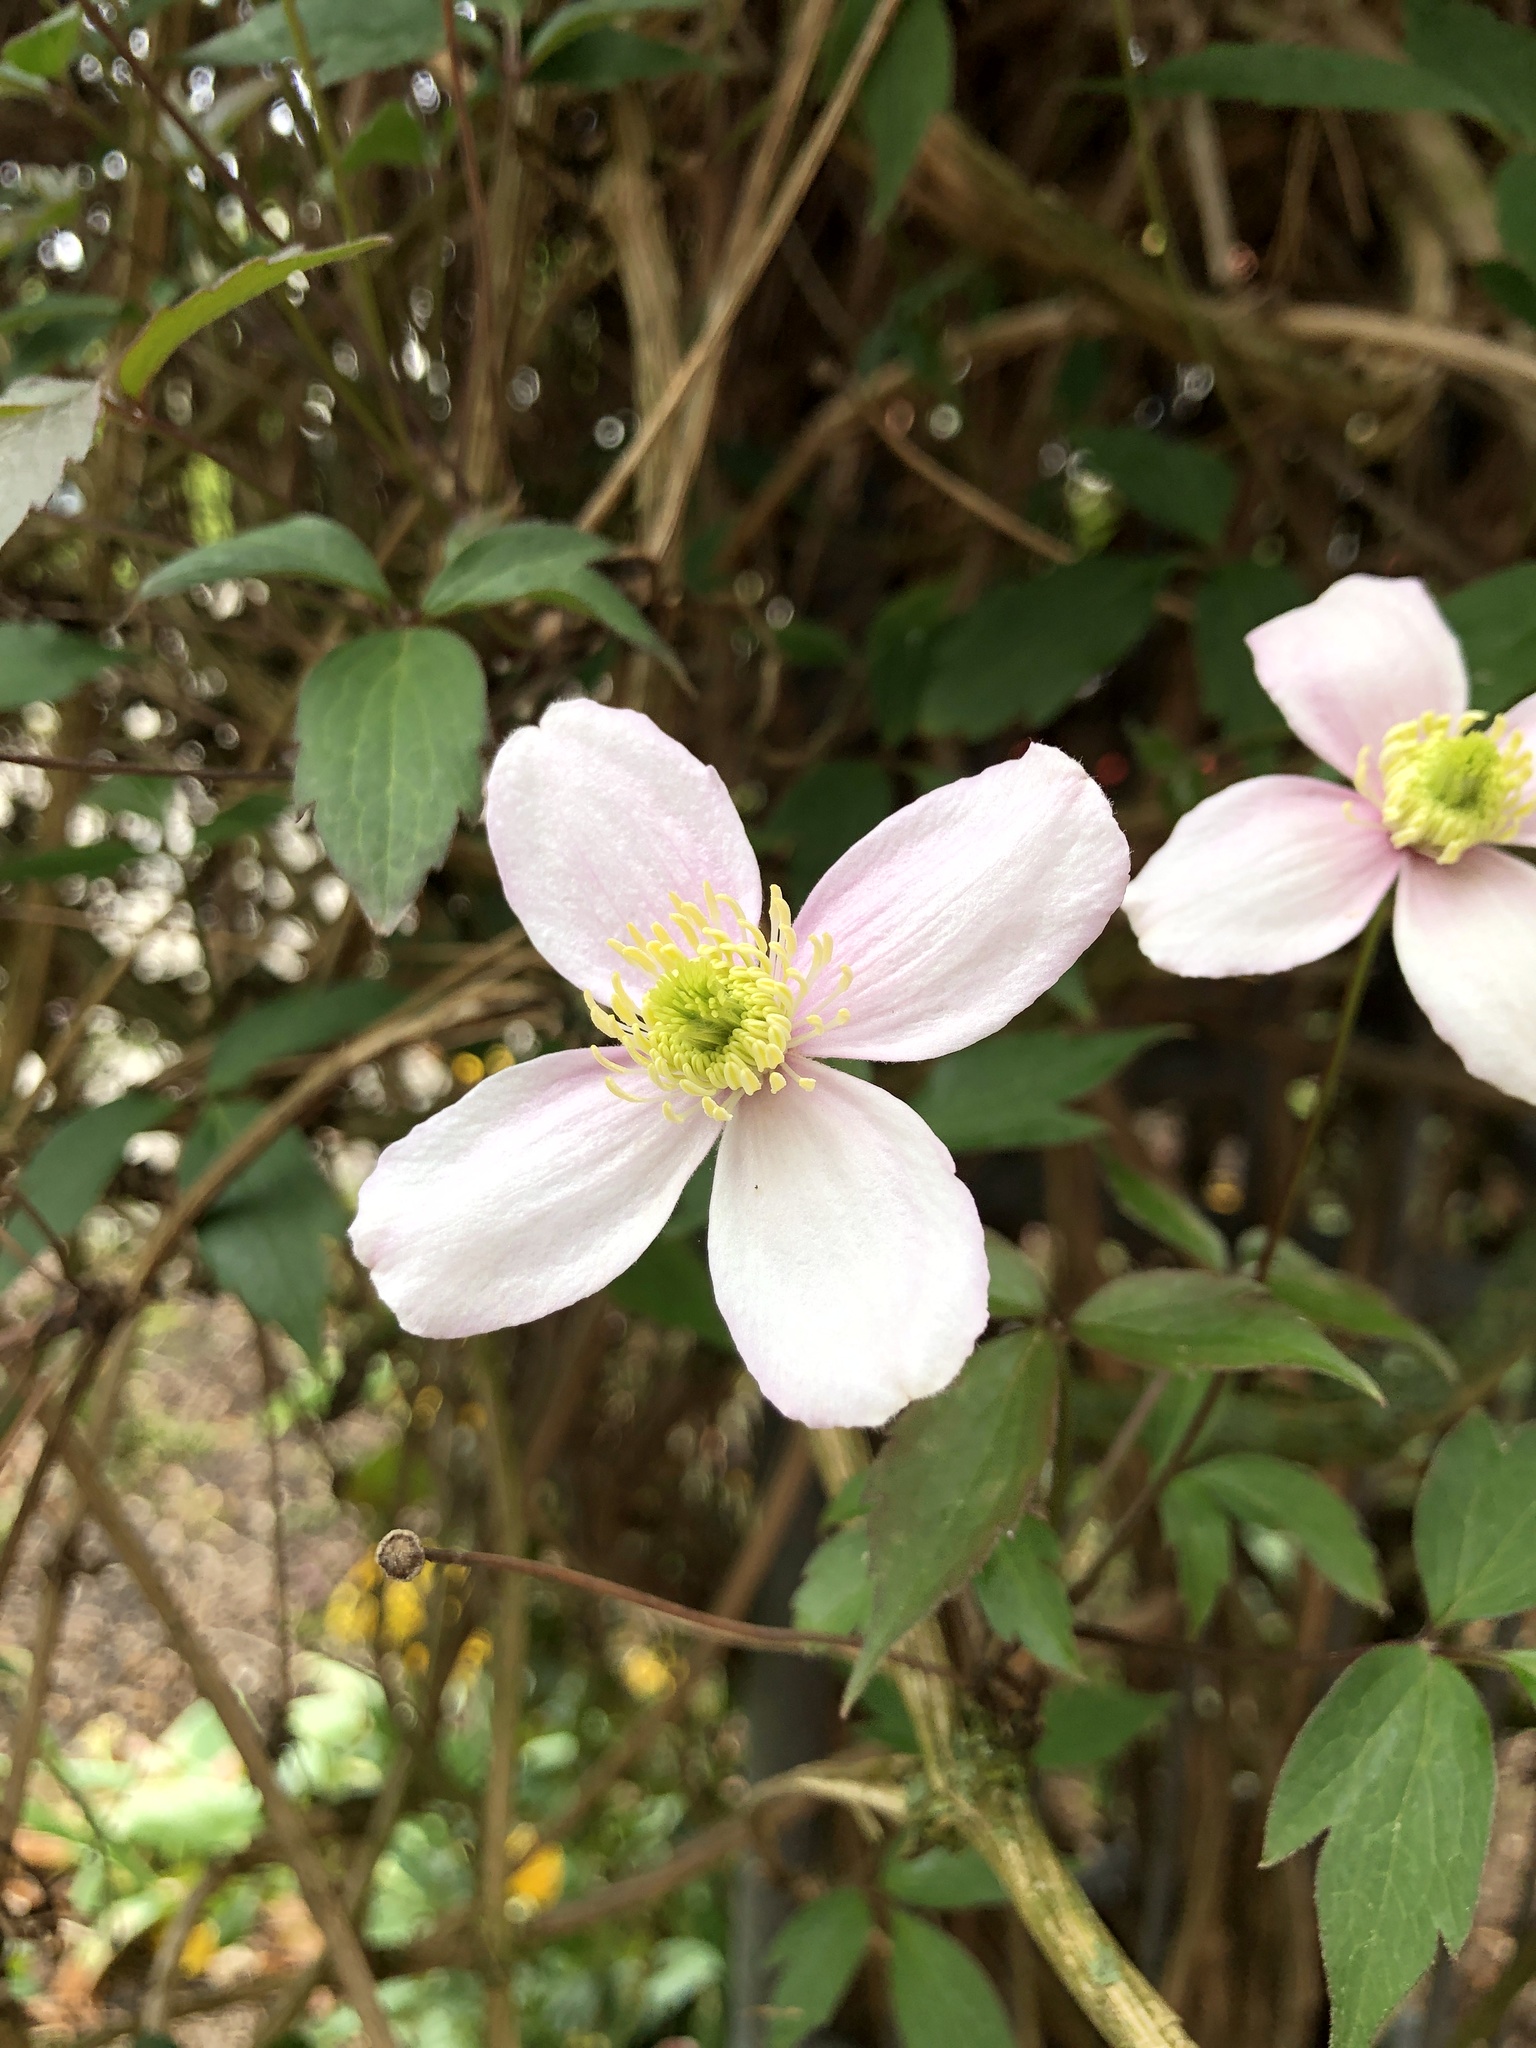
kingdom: Plantae
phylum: Tracheophyta
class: Magnoliopsida
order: Ranunculales
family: Ranunculaceae
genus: Clematis
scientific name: Clematis montana
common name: Himalayan clematis
